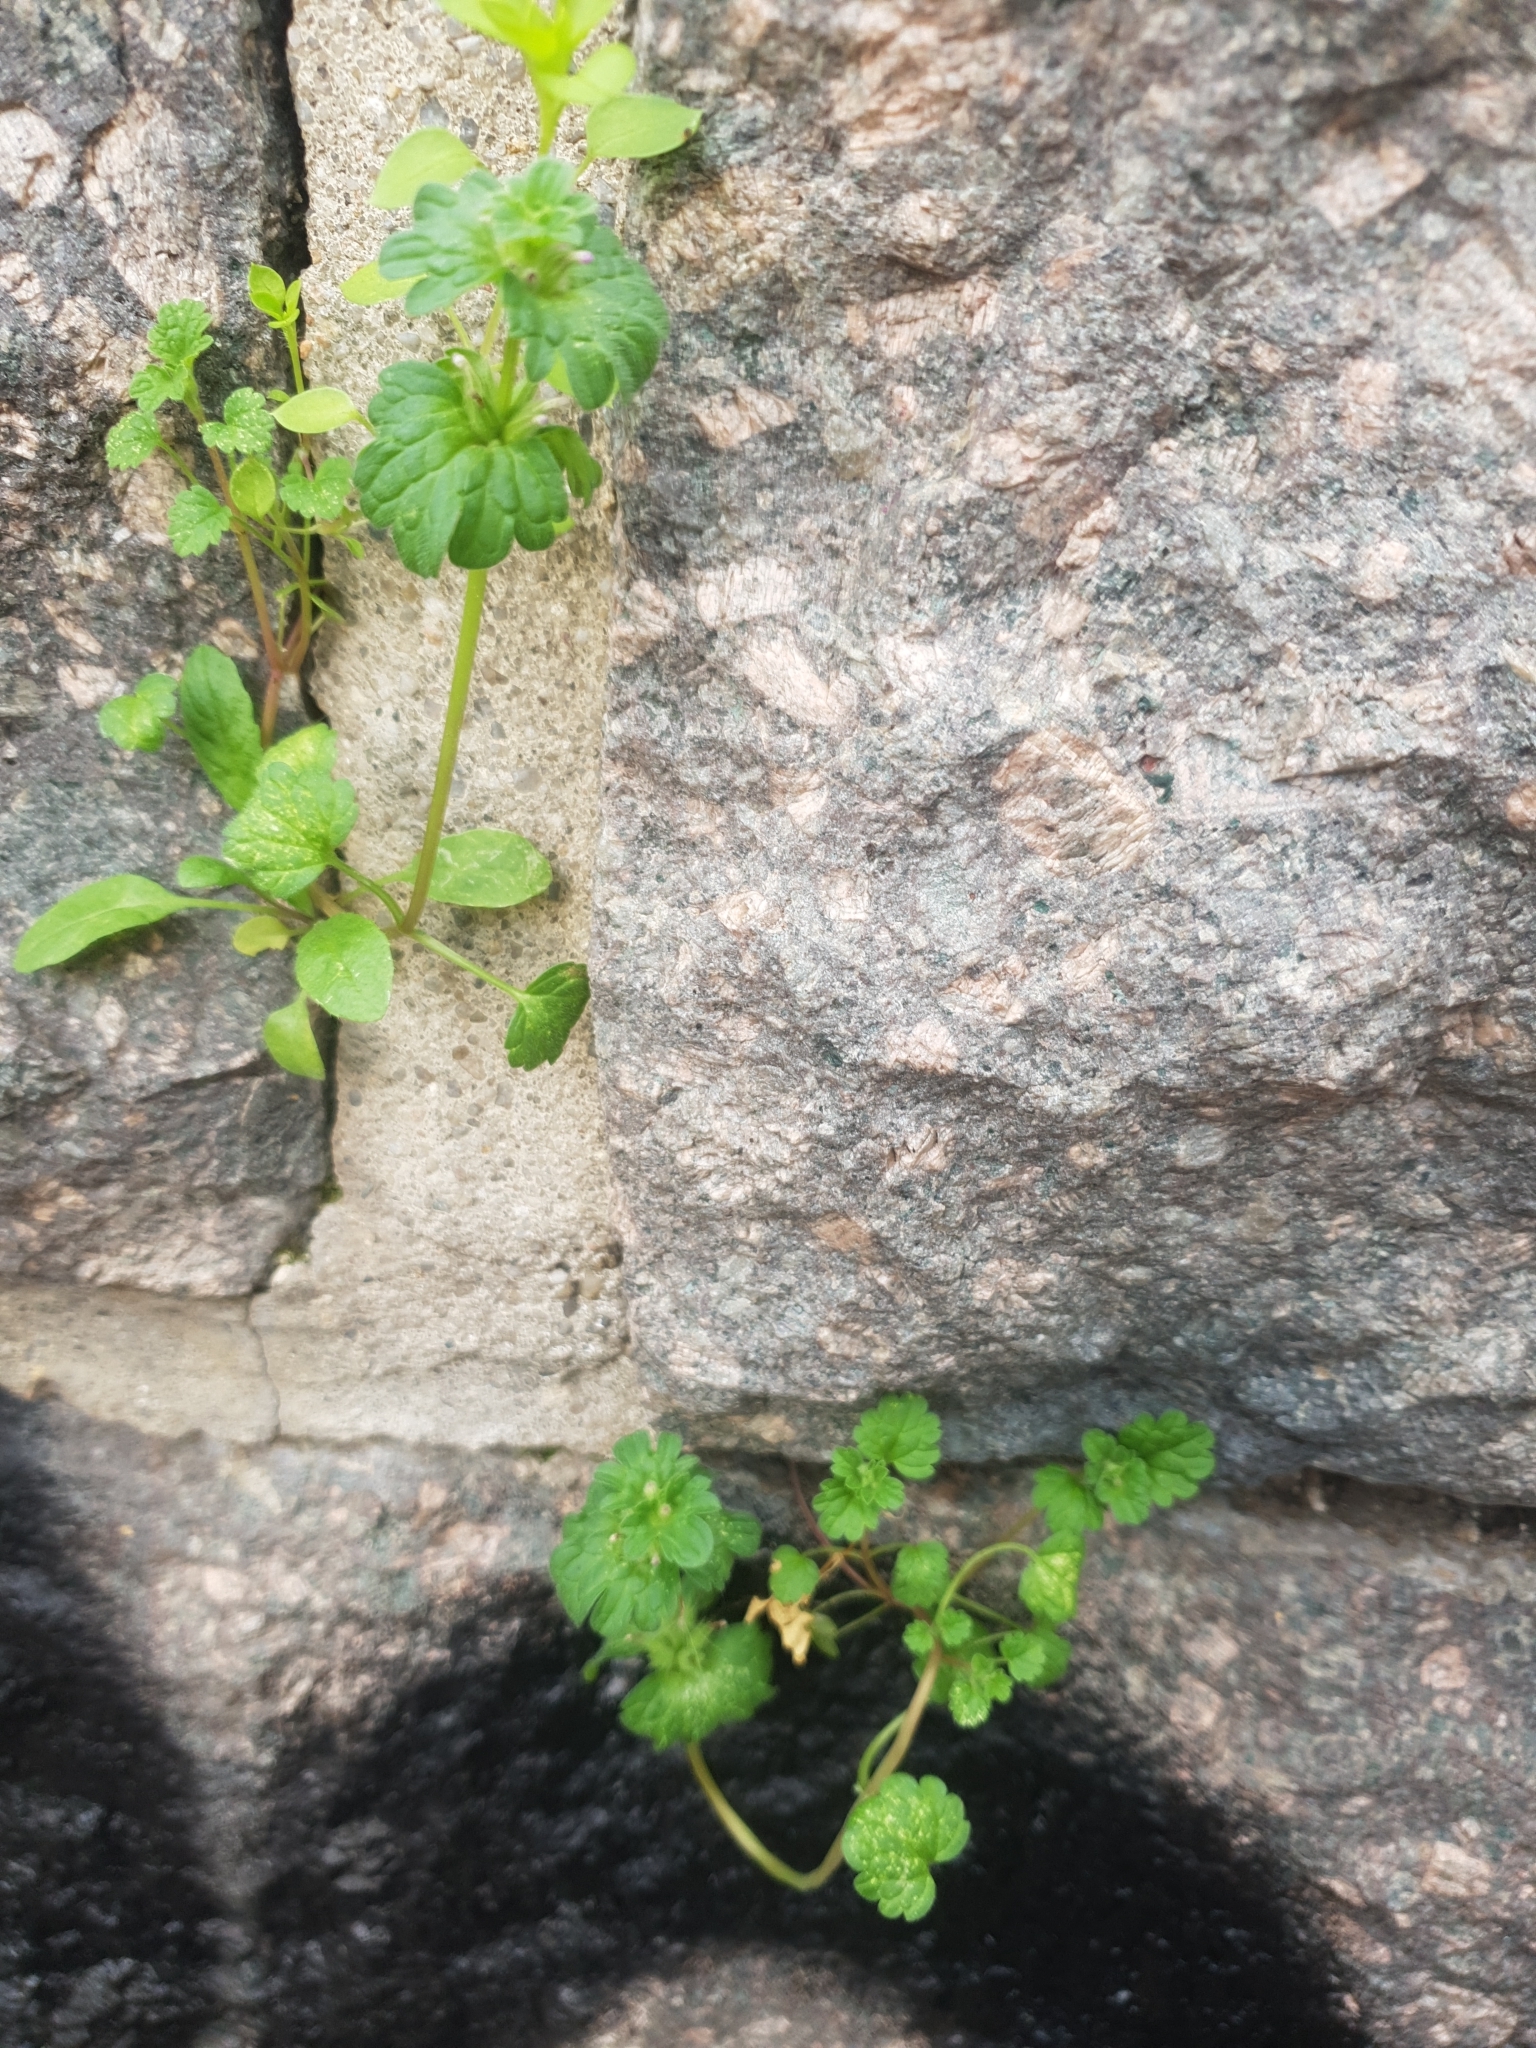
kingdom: Plantae
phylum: Tracheophyta
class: Magnoliopsida
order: Lamiales
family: Lamiaceae
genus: Lamium
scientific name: Lamium amplexicaule
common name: Henbit dead-nettle
